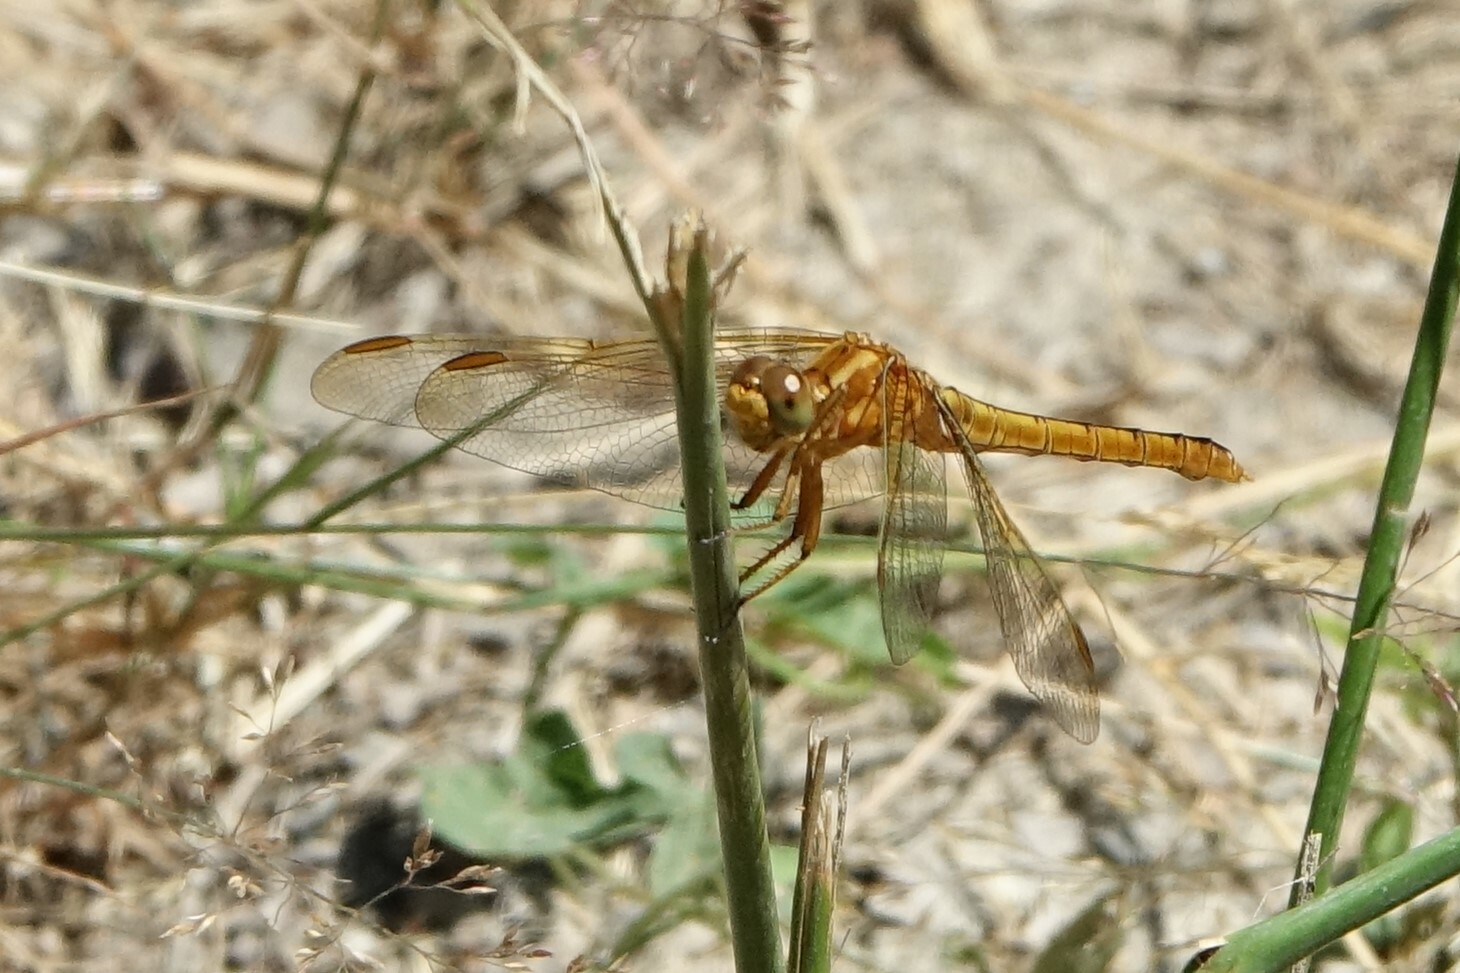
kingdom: Animalia
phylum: Arthropoda
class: Insecta
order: Odonata
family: Libellulidae
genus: Orthetrum
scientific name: Orthetrum coerulescens
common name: Keeled skimmer
